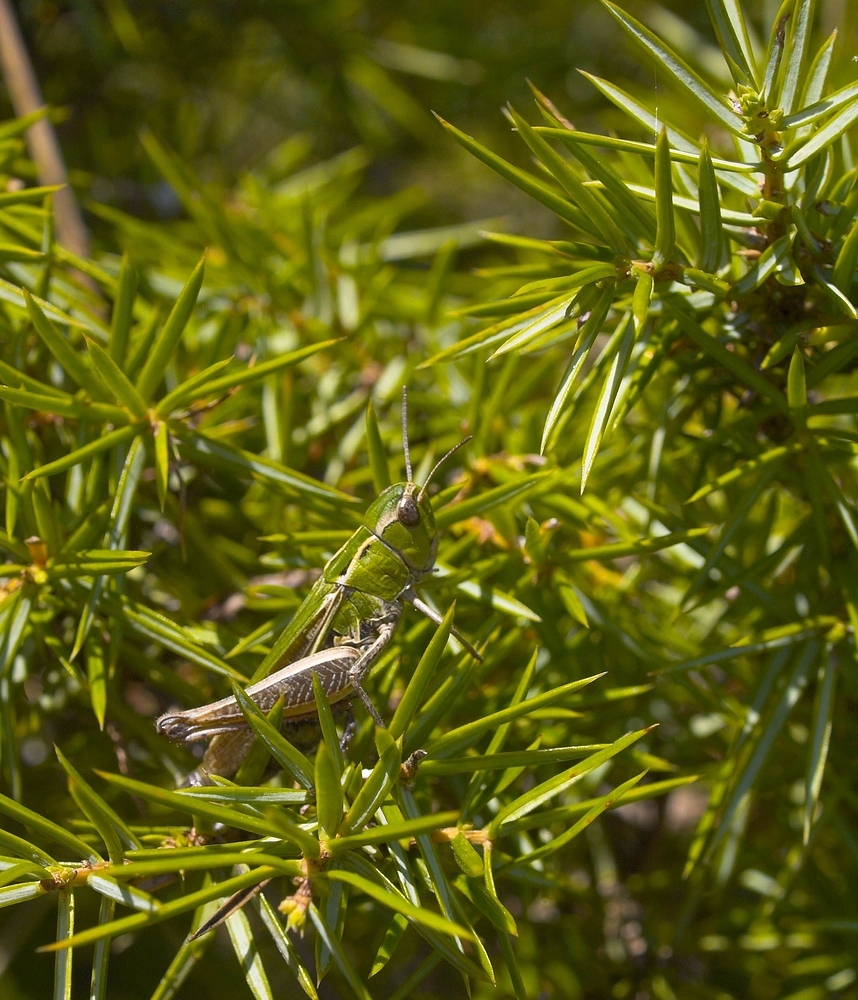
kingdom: Animalia
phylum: Arthropoda
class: Insecta
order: Orthoptera
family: Acrididae
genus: Stenobothrus
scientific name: Stenobothrus lineatus
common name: Stripe-winged grasshopper
